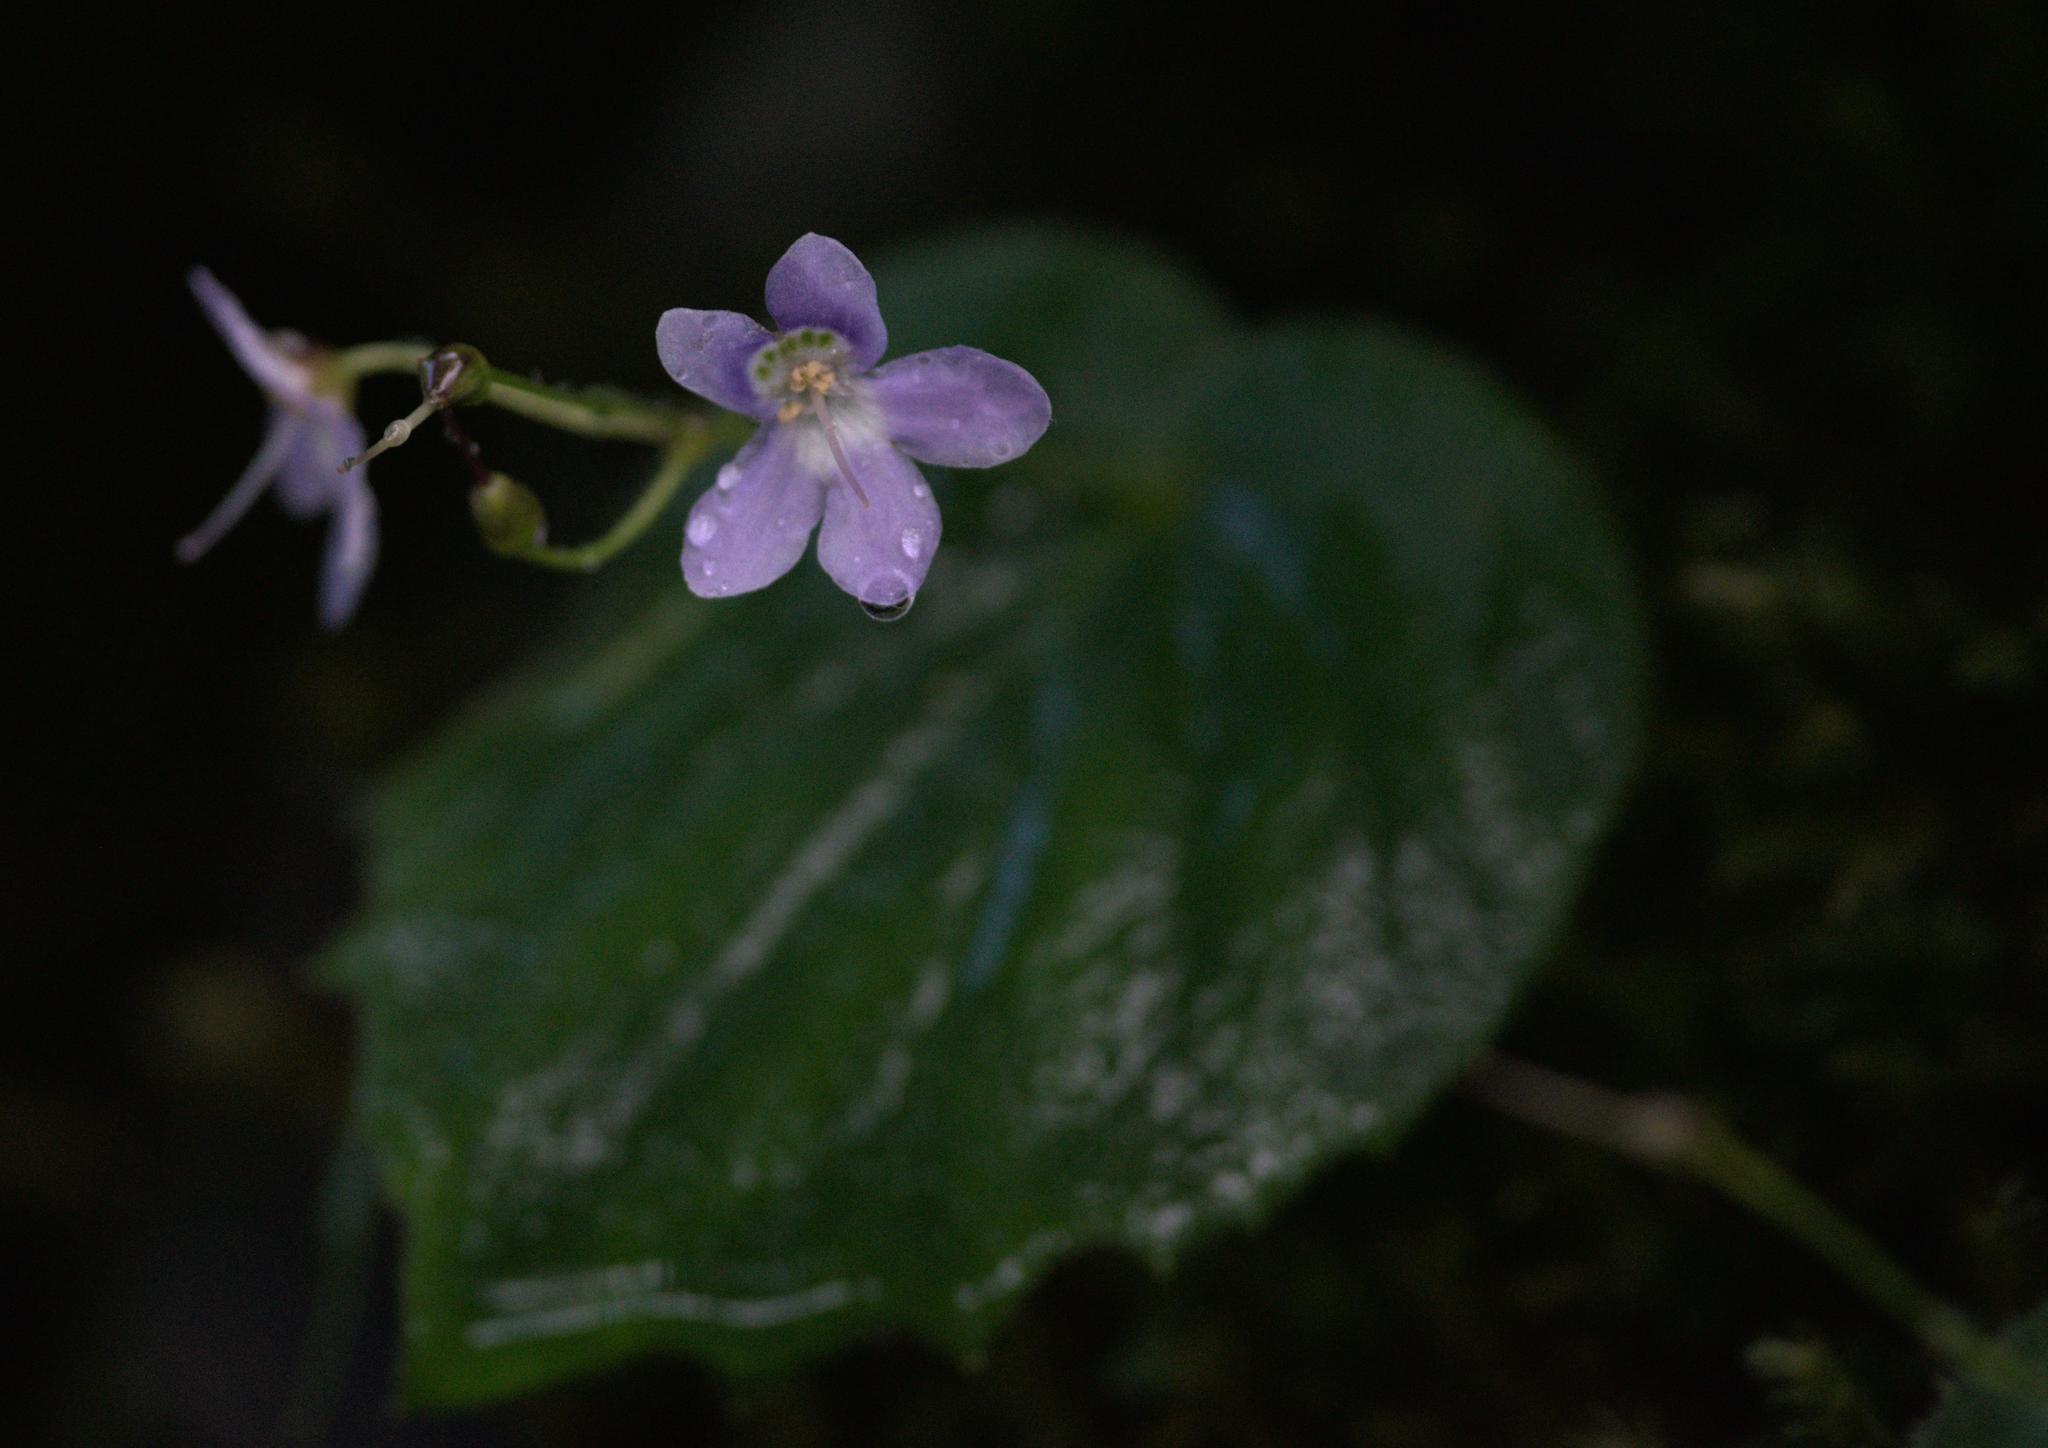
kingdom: Plantae
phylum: Tracheophyta
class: Magnoliopsida
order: Lamiales
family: Gesneriaceae
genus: Platystemma
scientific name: Platystemma violoides
